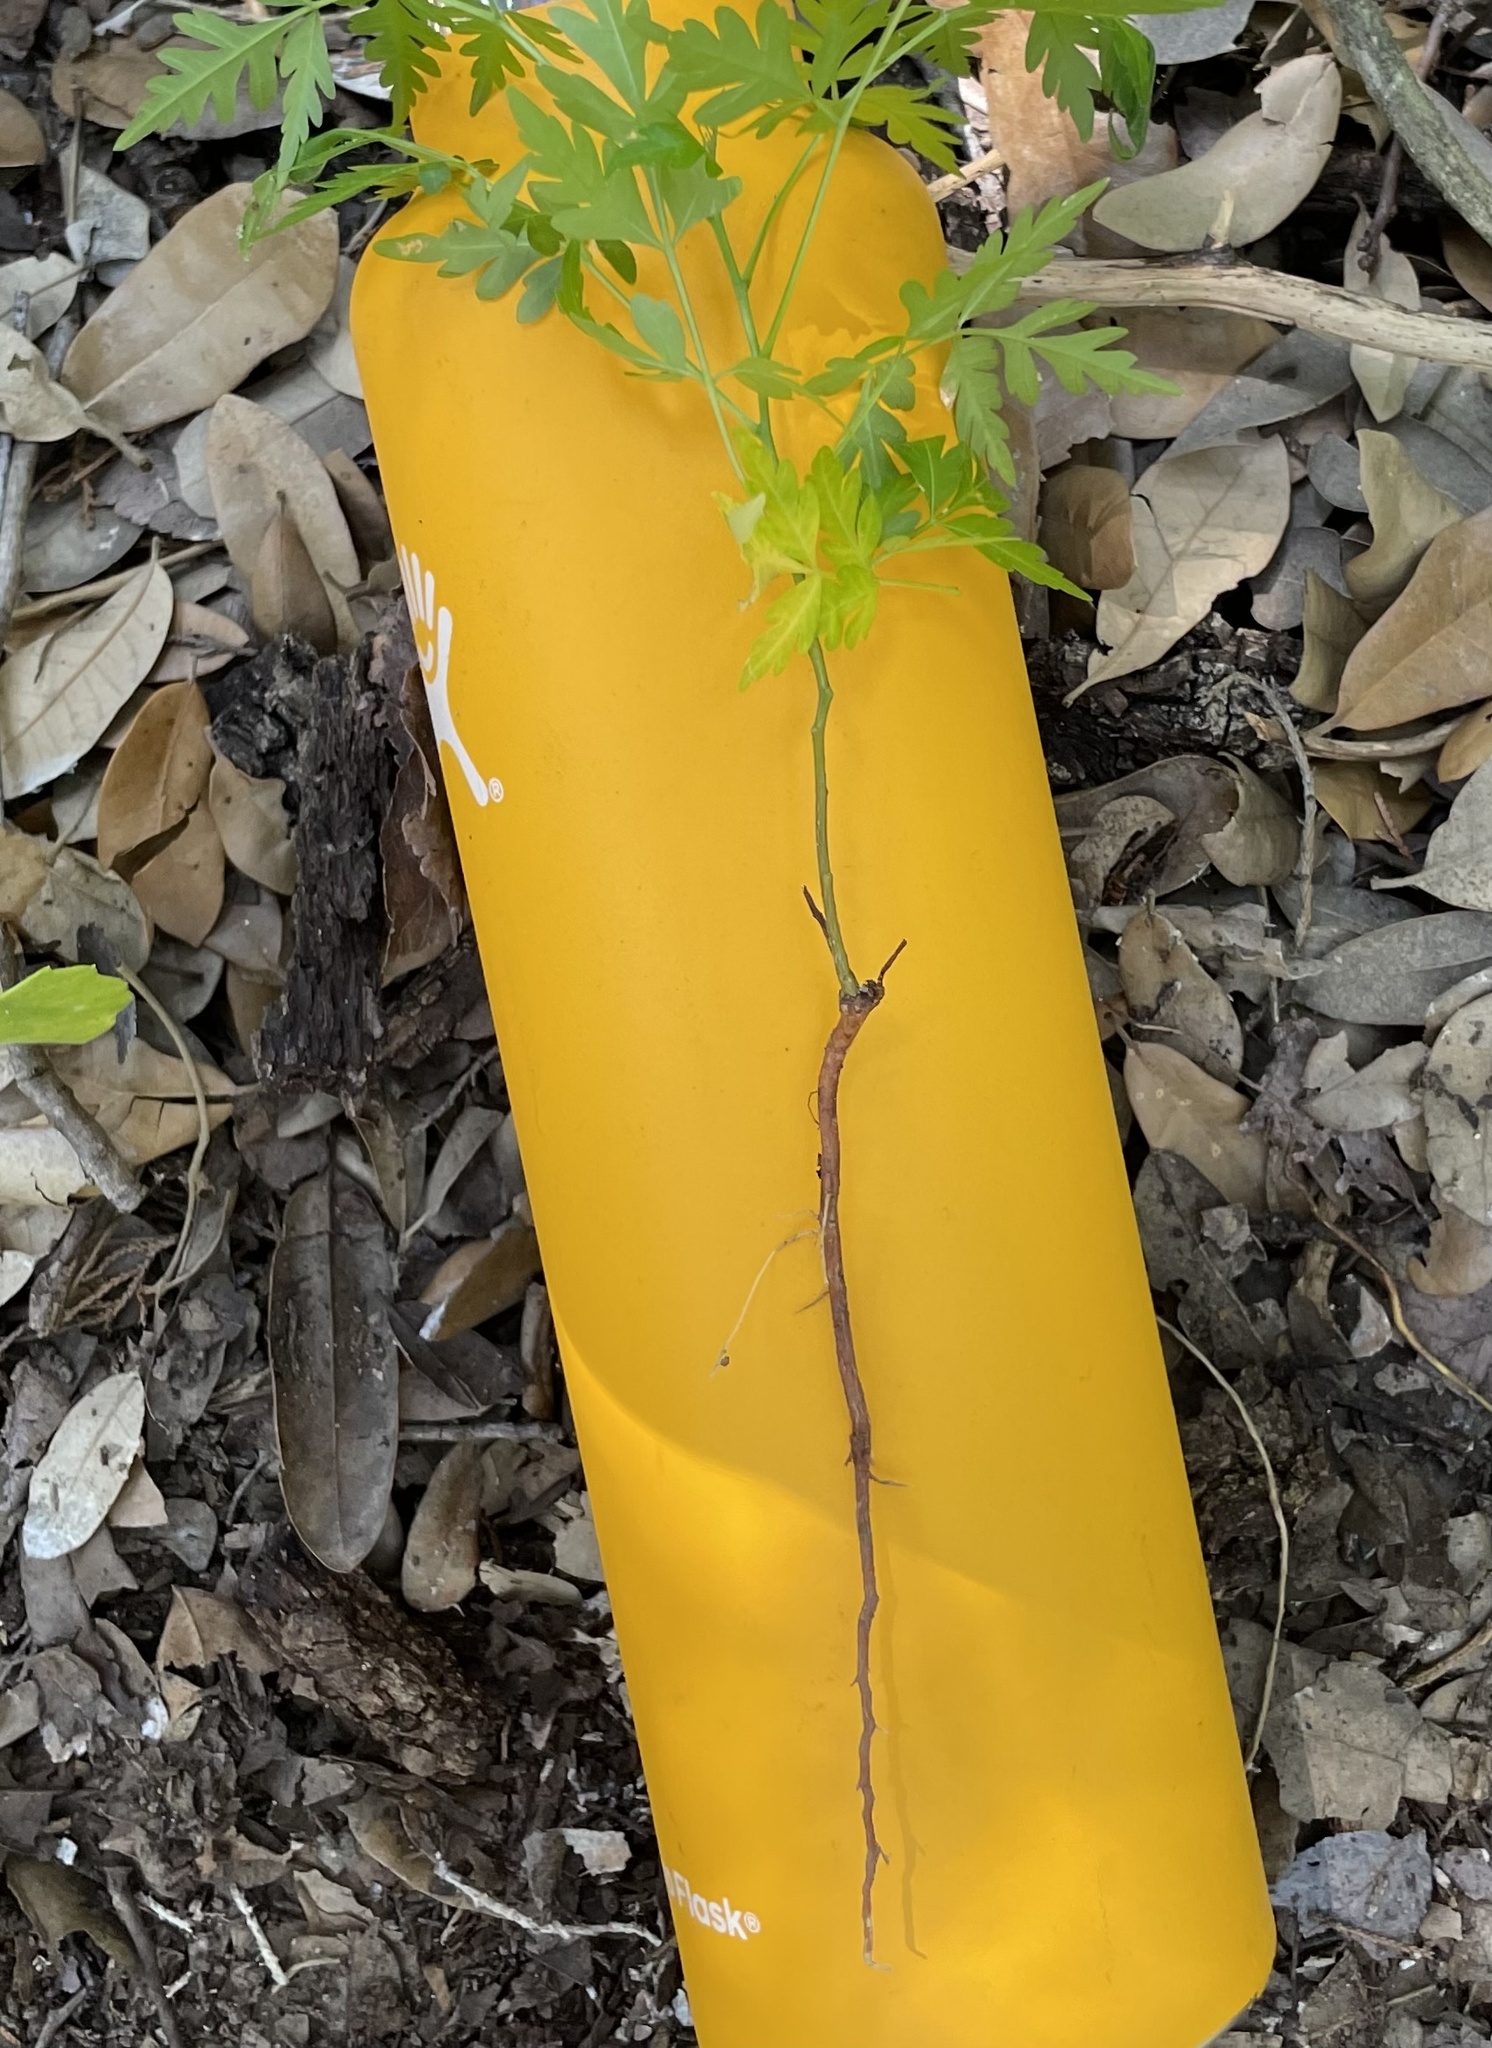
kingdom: Plantae
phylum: Tracheophyta
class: Magnoliopsida
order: Sapindales
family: Meliaceae
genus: Melia
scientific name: Melia azedarach
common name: Chinaberrytree
